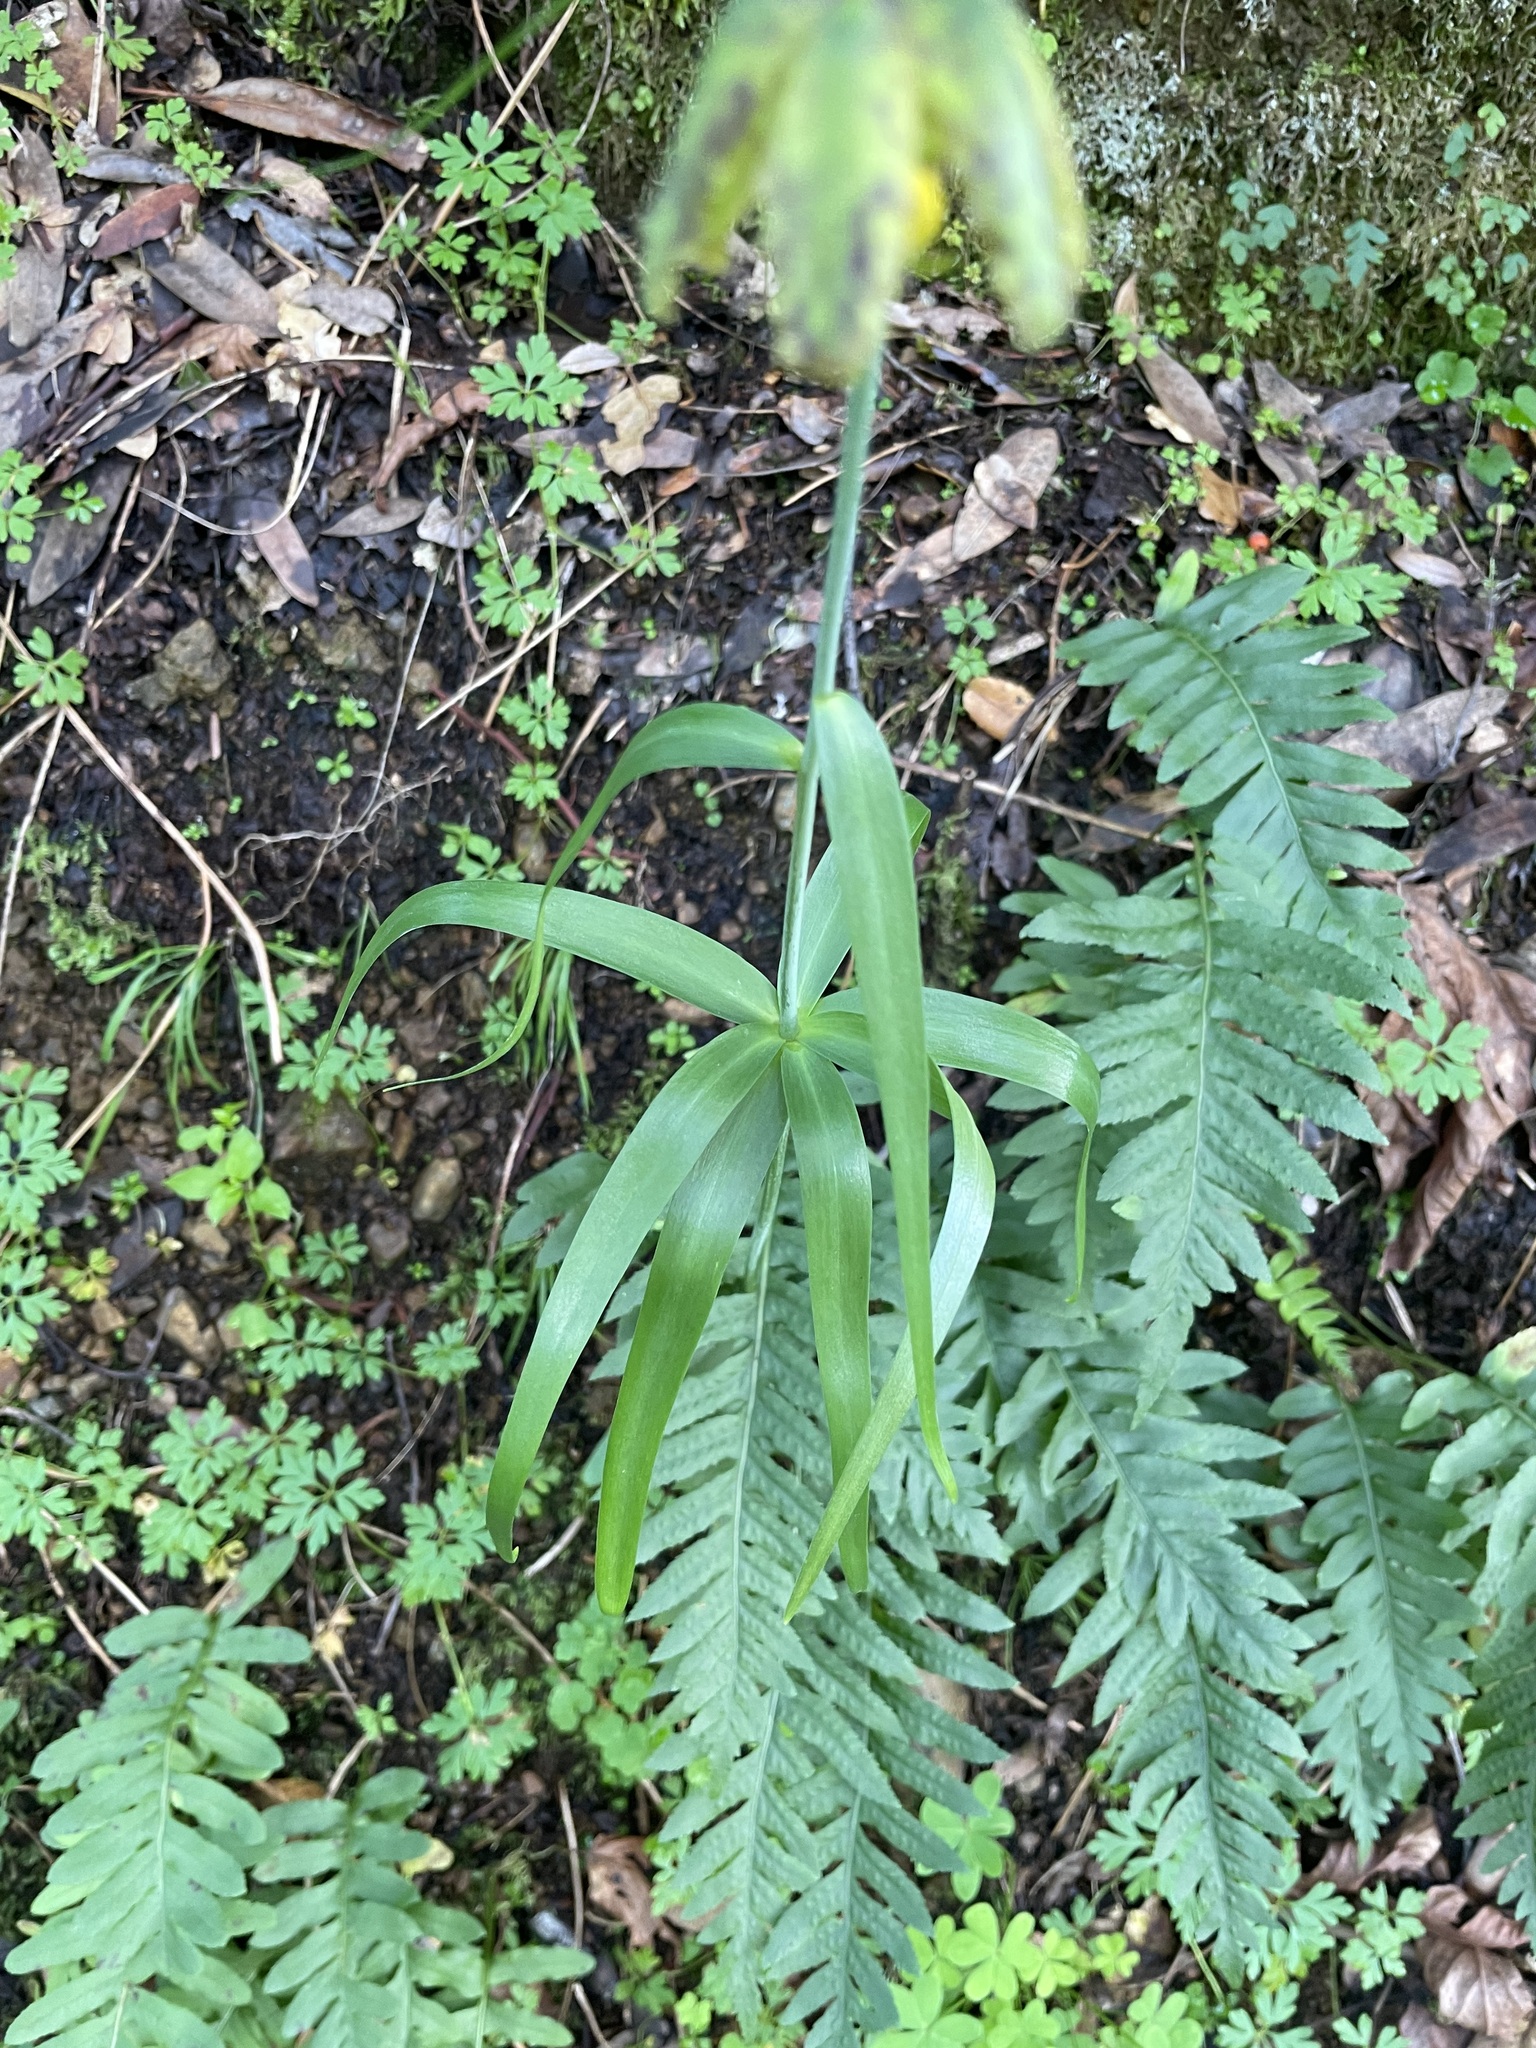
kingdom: Plantae
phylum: Tracheophyta
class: Liliopsida
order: Liliales
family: Liliaceae
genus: Fritillaria
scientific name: Fritillaria affinis
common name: Ojai fritillary
